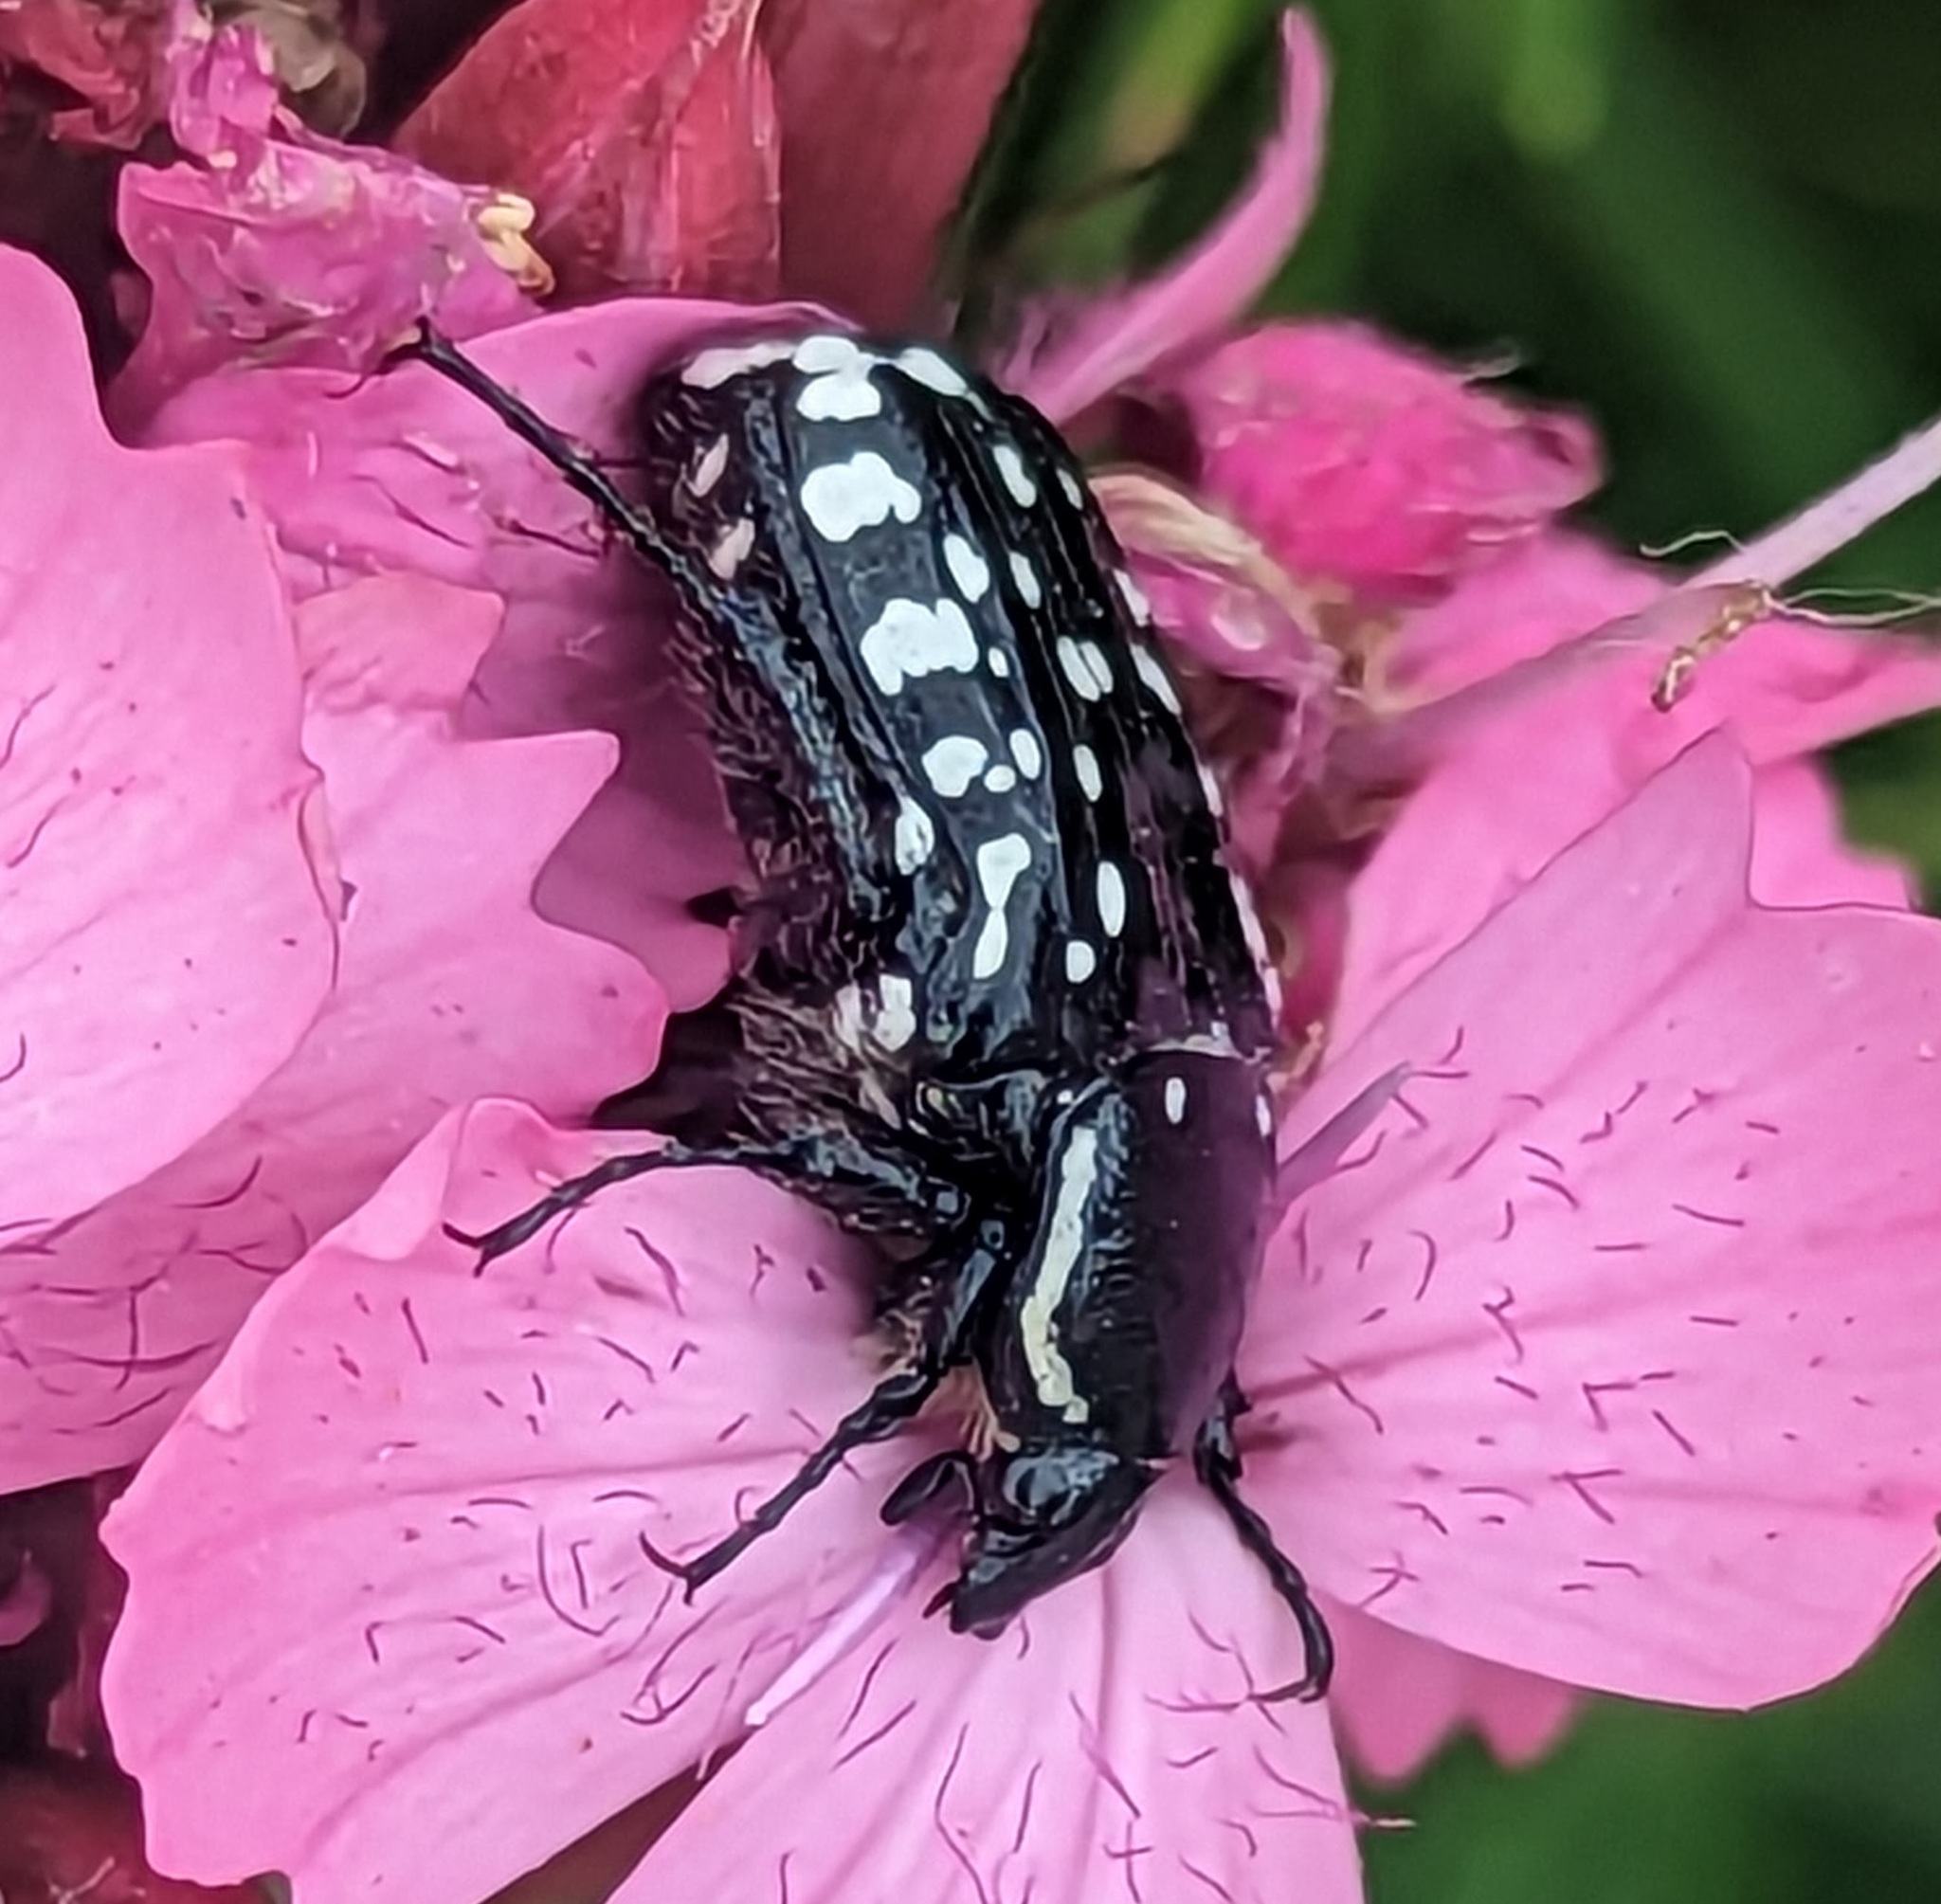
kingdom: Animalia
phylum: Arthropoda
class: Insecta
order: Coleoptera
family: Scarabaeidae
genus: Oxythyrea
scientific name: Oxythyrea cinctella
